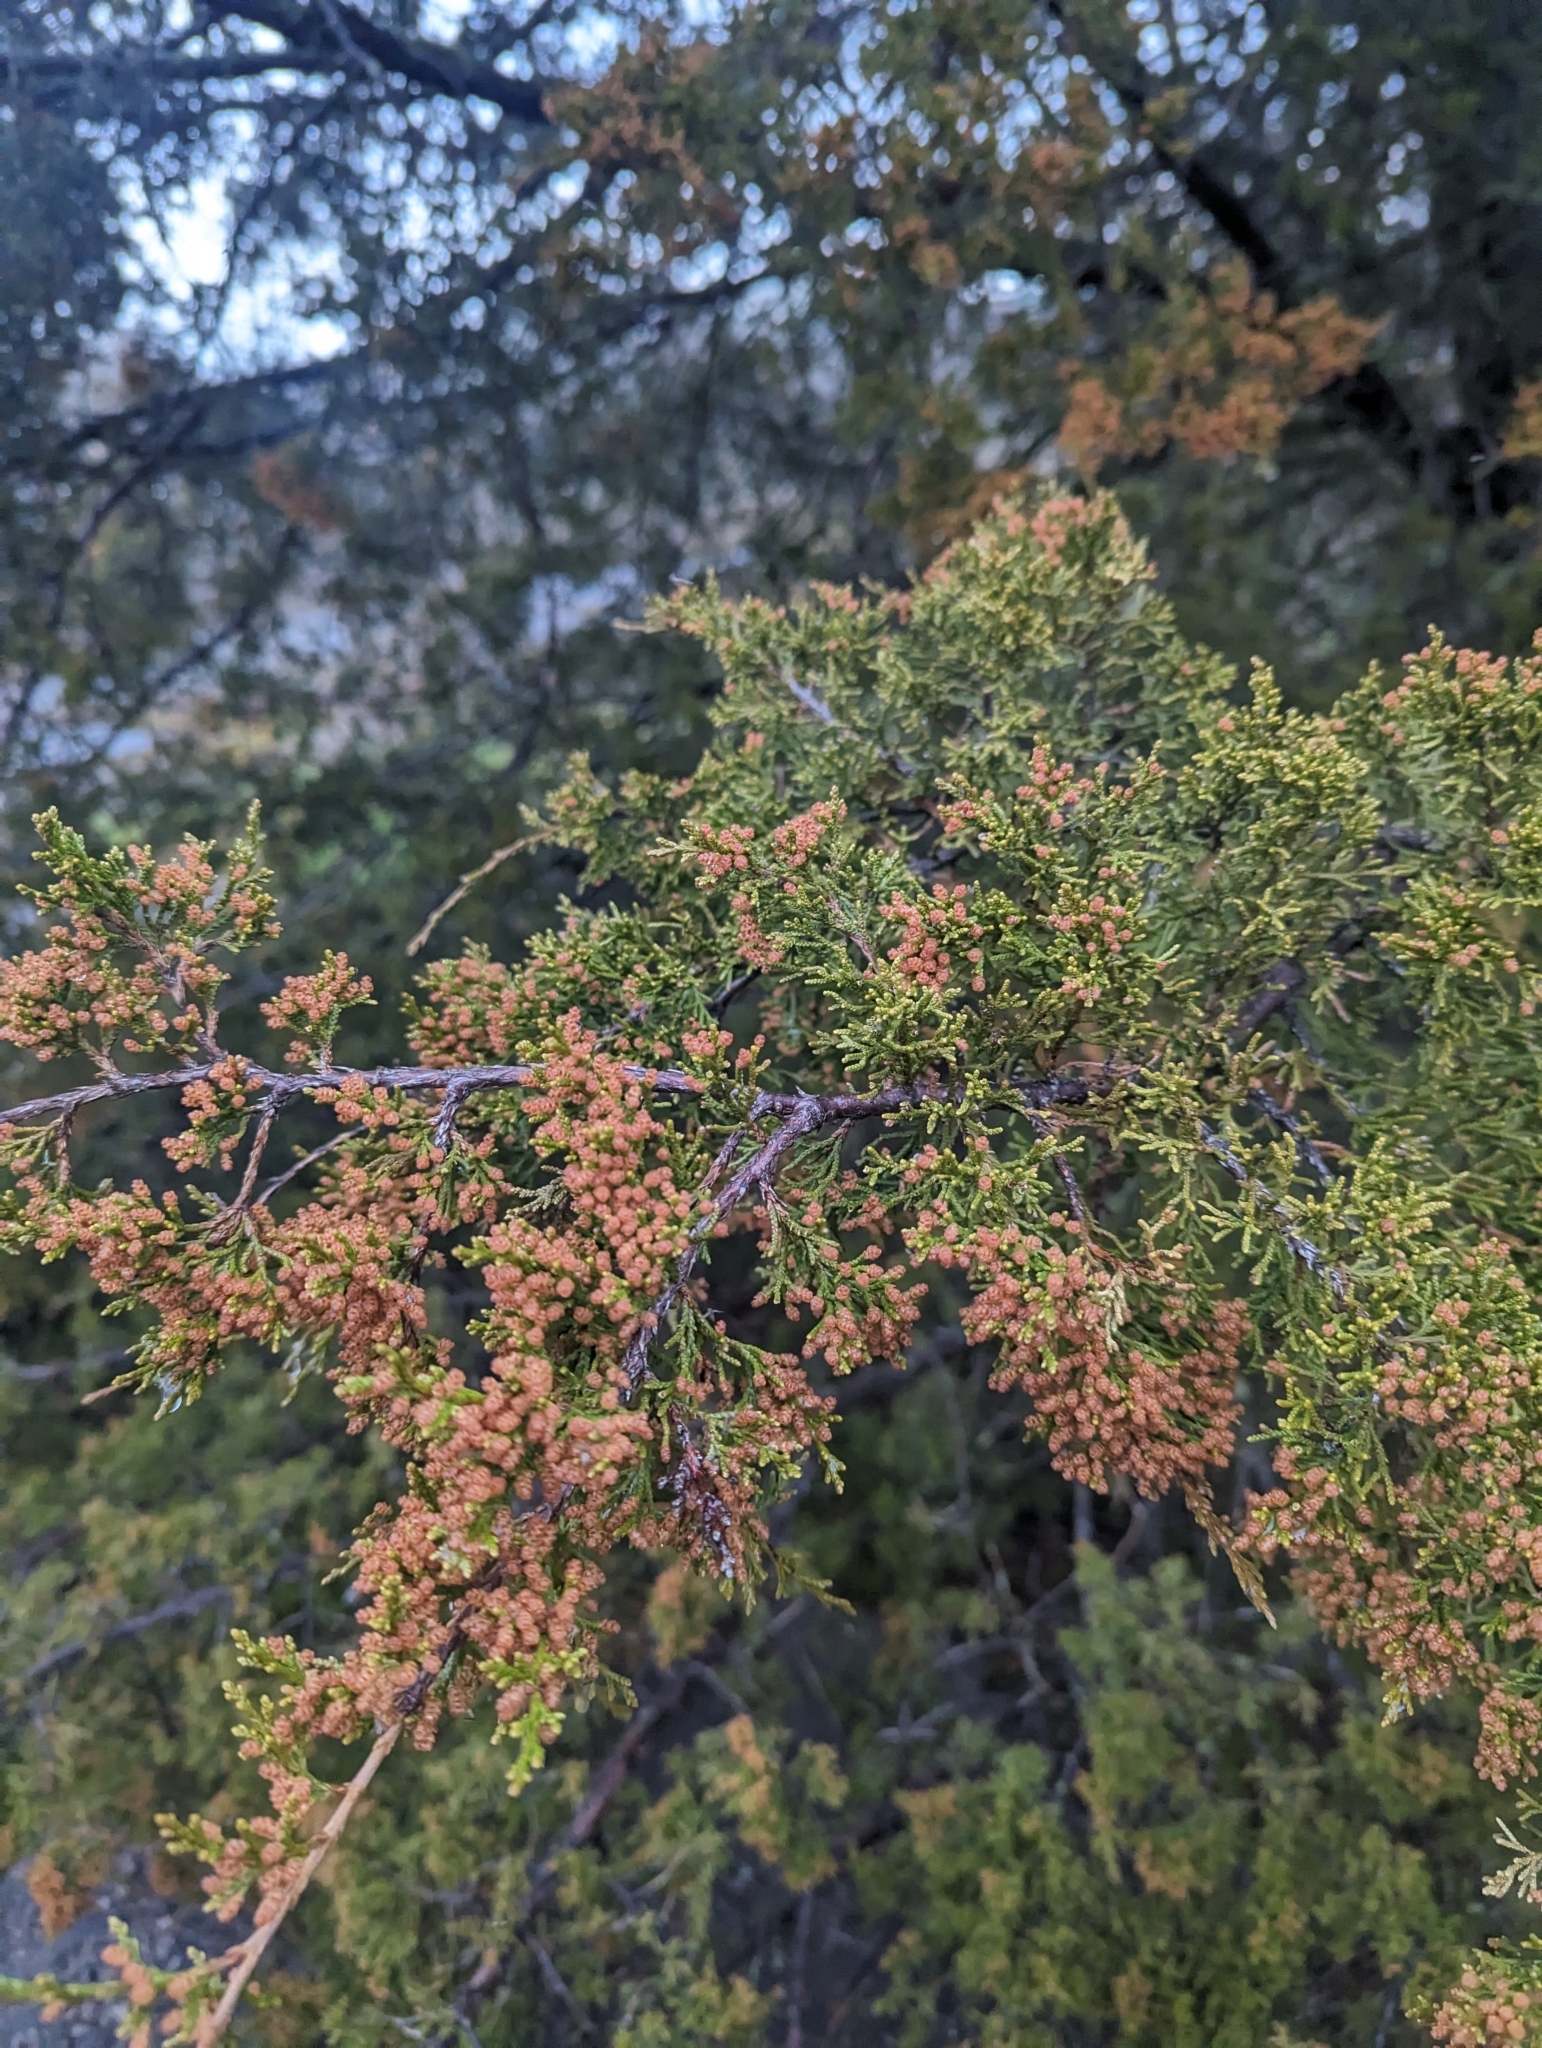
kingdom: Plantae
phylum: Tracheophyta
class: Pinopsida
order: Pinales
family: Cupressaceae
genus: Juniperus
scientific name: Juniperus virginiana
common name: Red juniper
